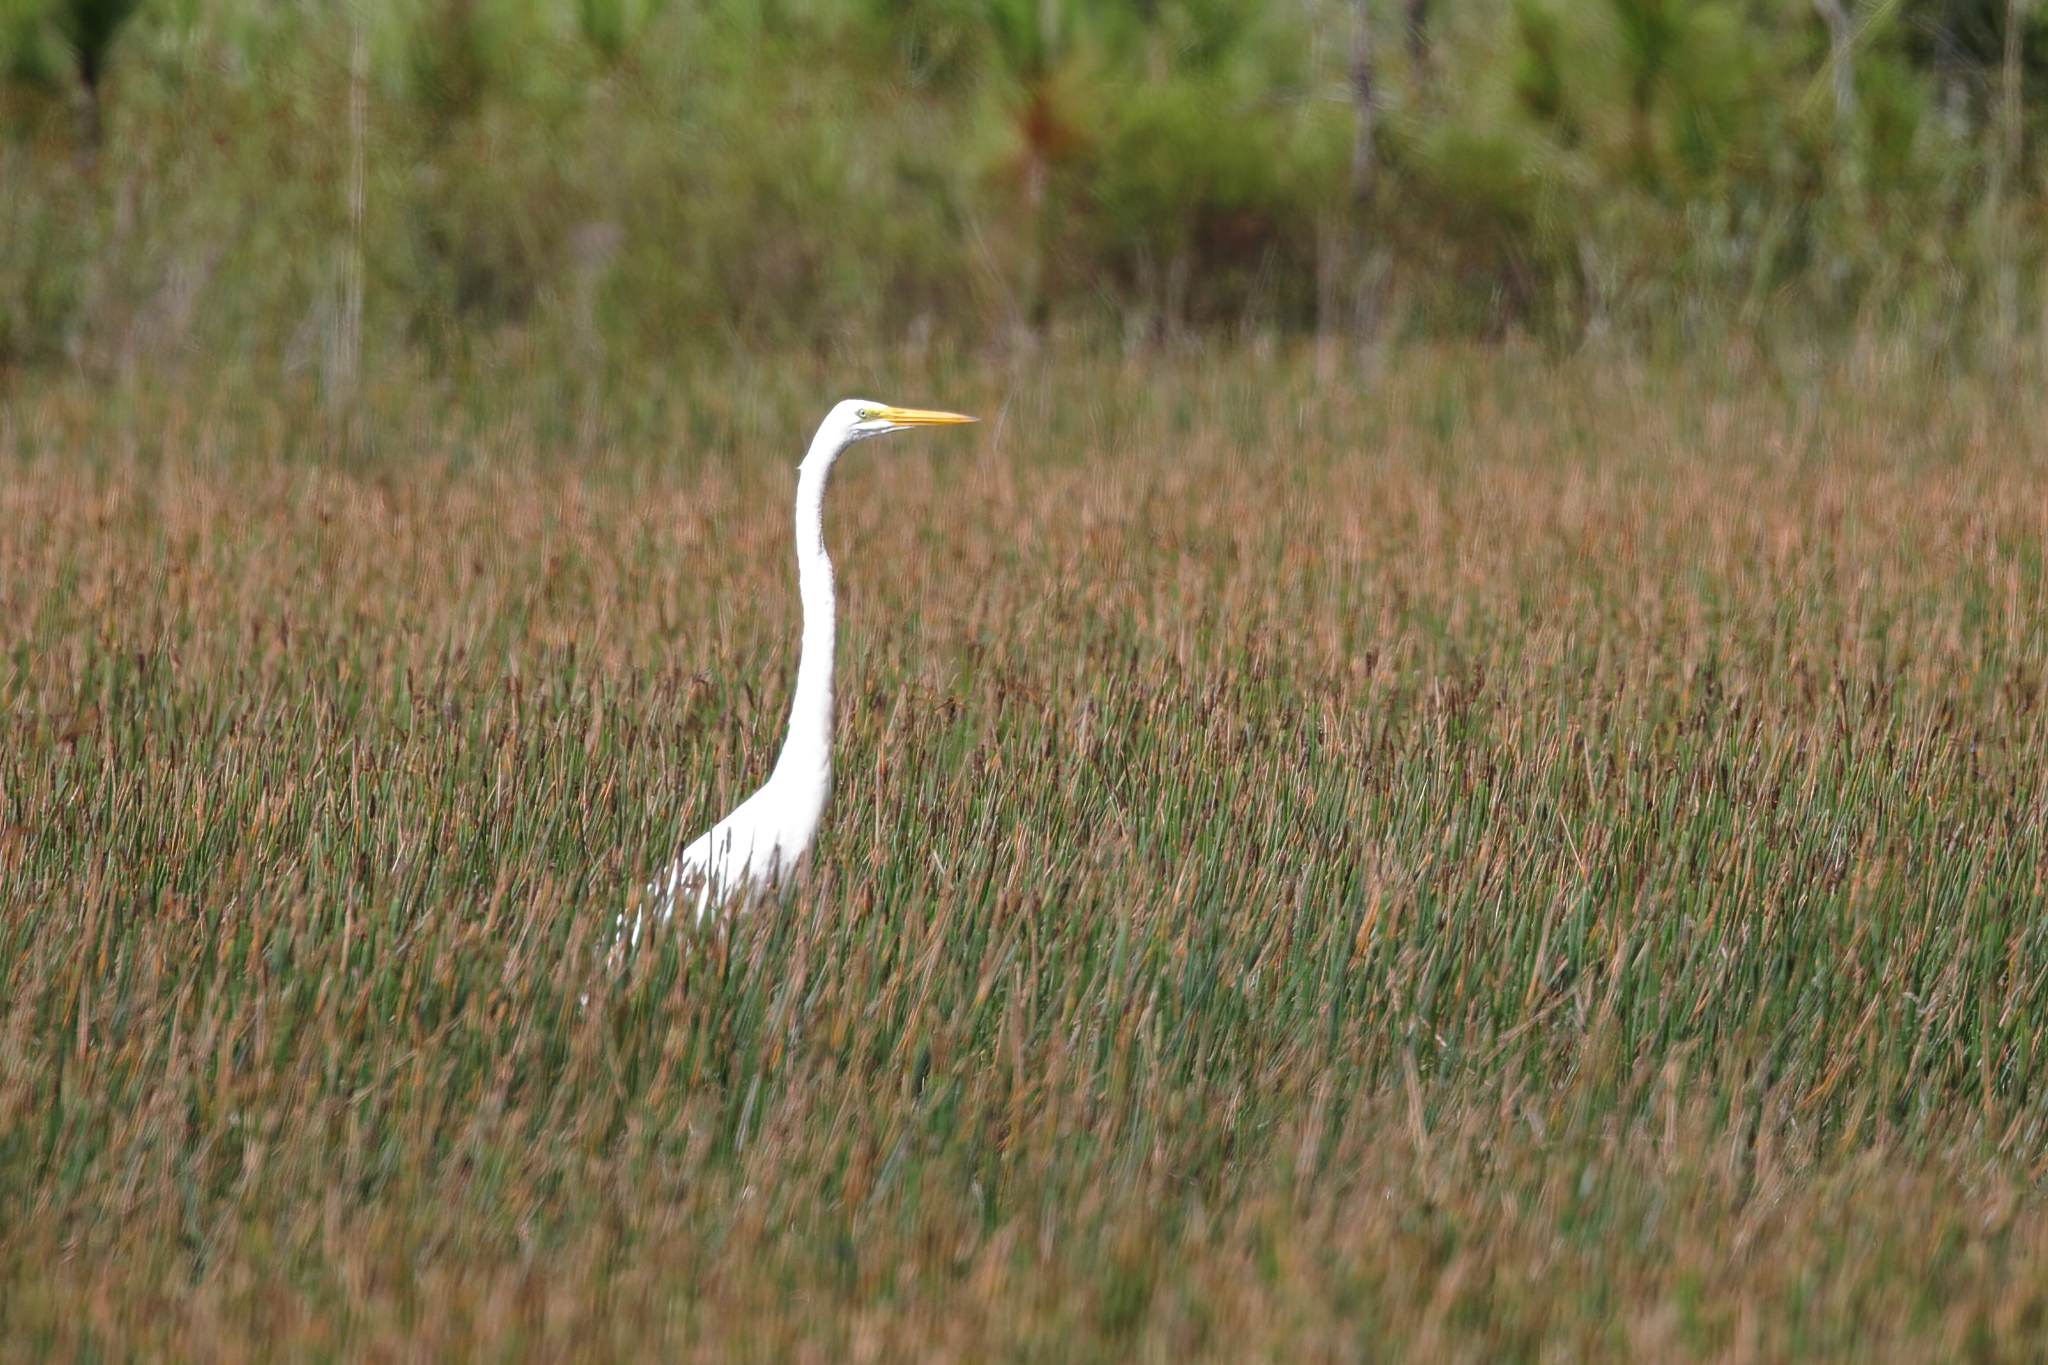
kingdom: Animalia
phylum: Chordata
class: Aves
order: Pelecaniformes
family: Ardeidae
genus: Ardea
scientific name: Ardea alba
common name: Great egret
